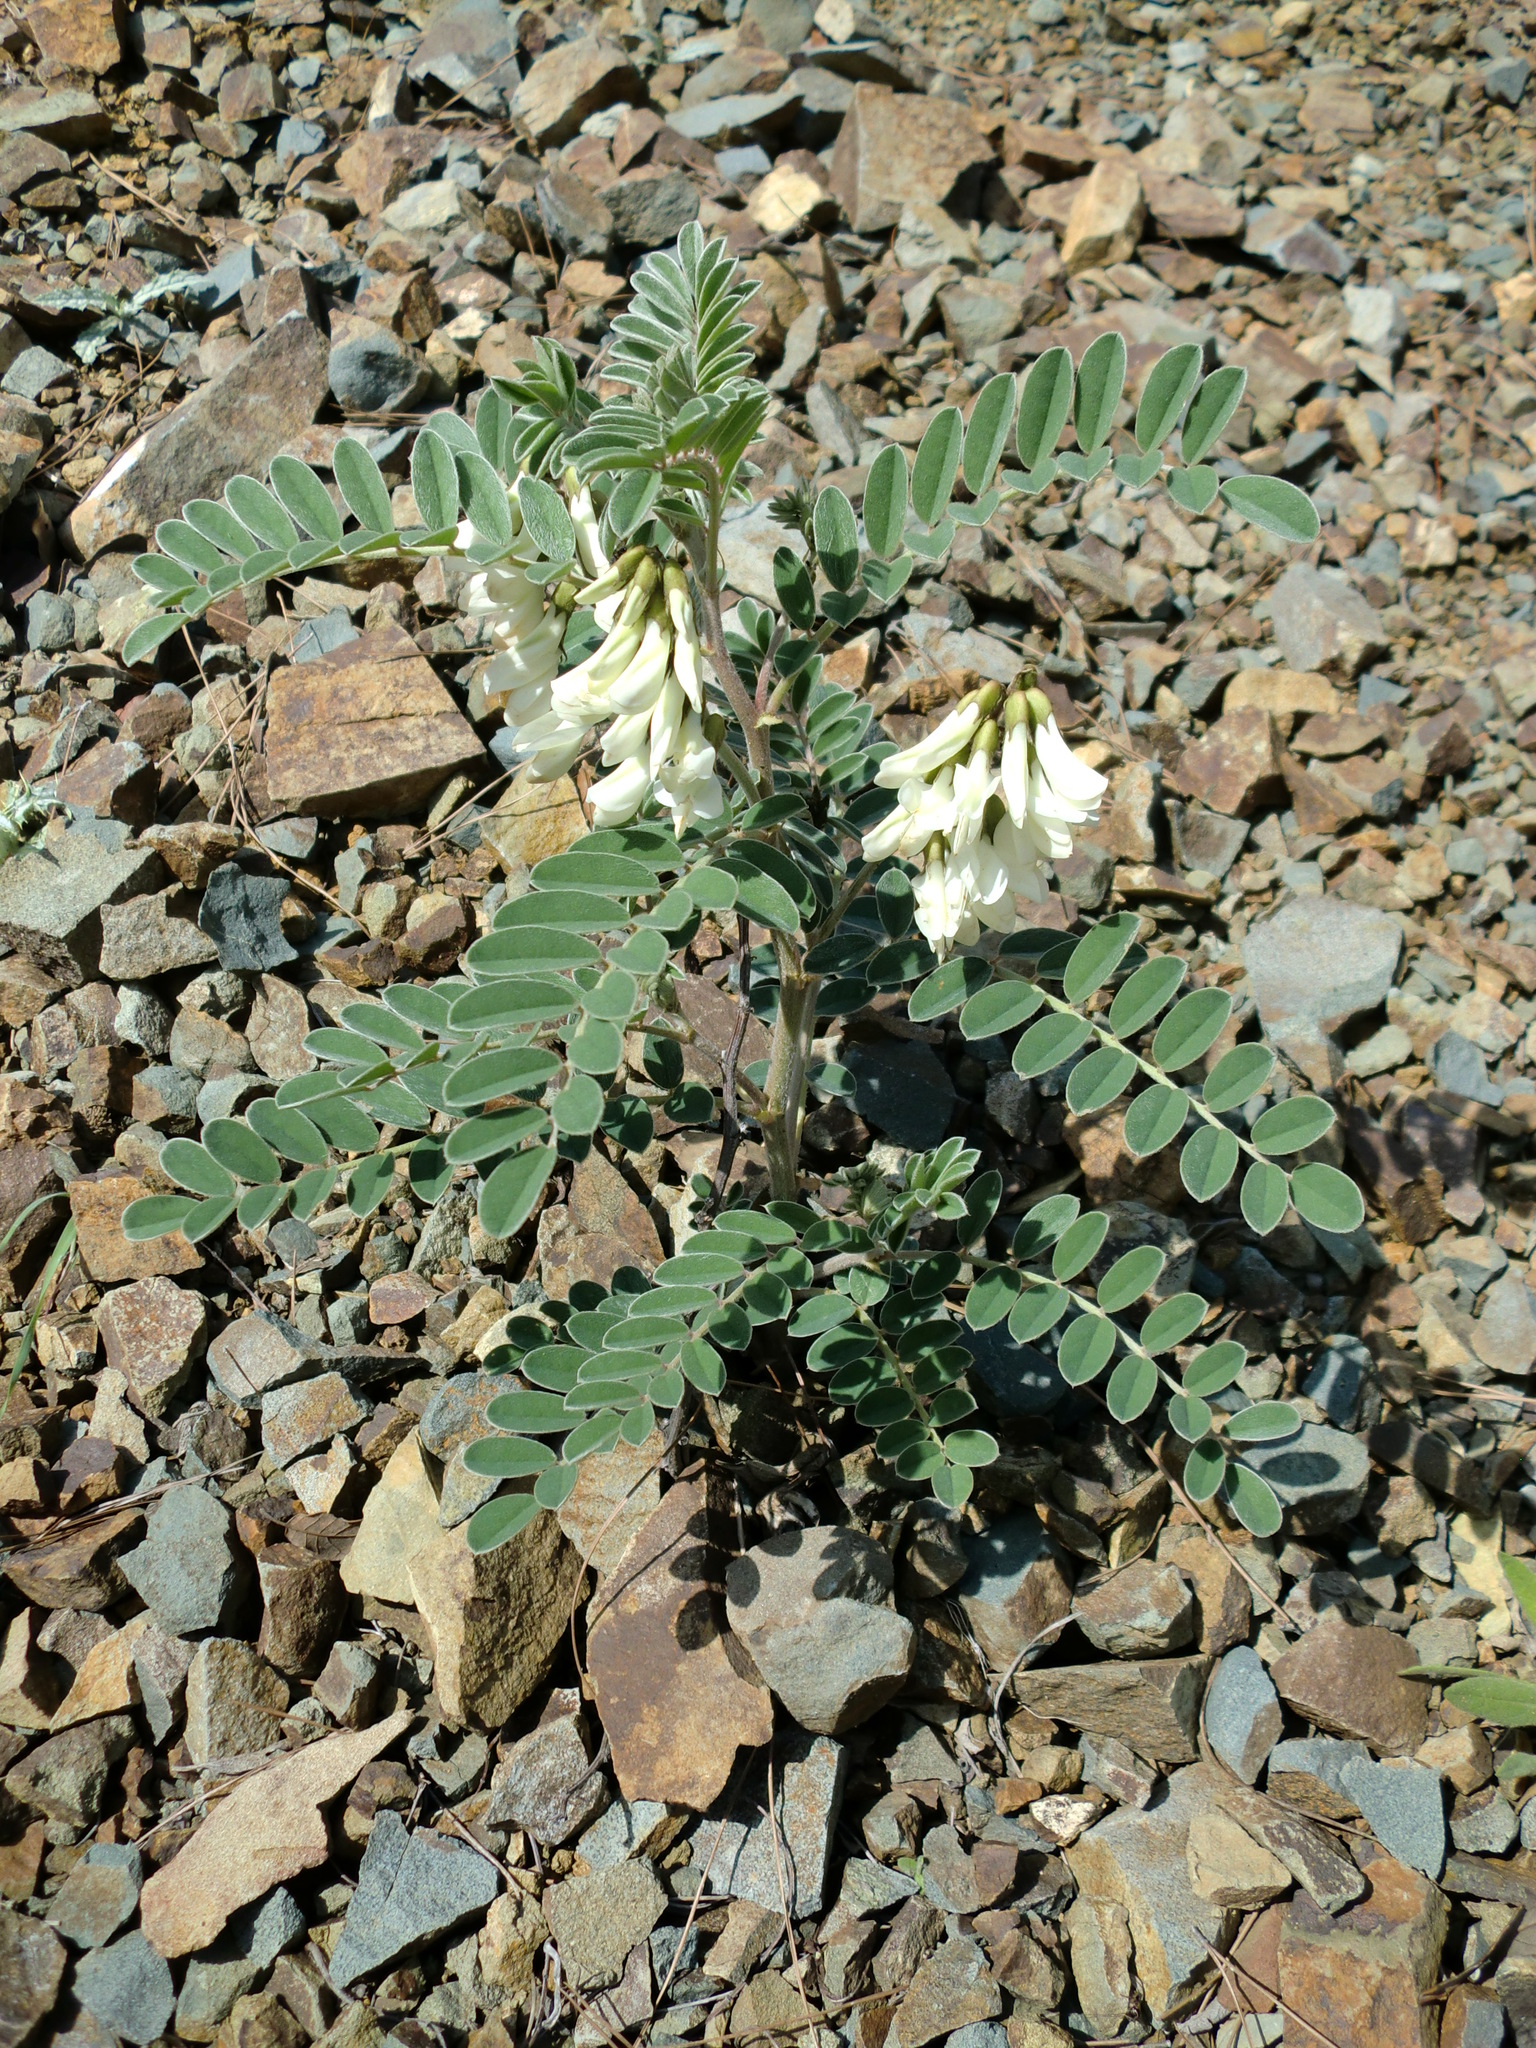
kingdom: Plantae
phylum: Tracheophyta
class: Magnoliopsida
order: Fabales
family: Fabaceae
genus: Erophaca
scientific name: Erophaca baetica
